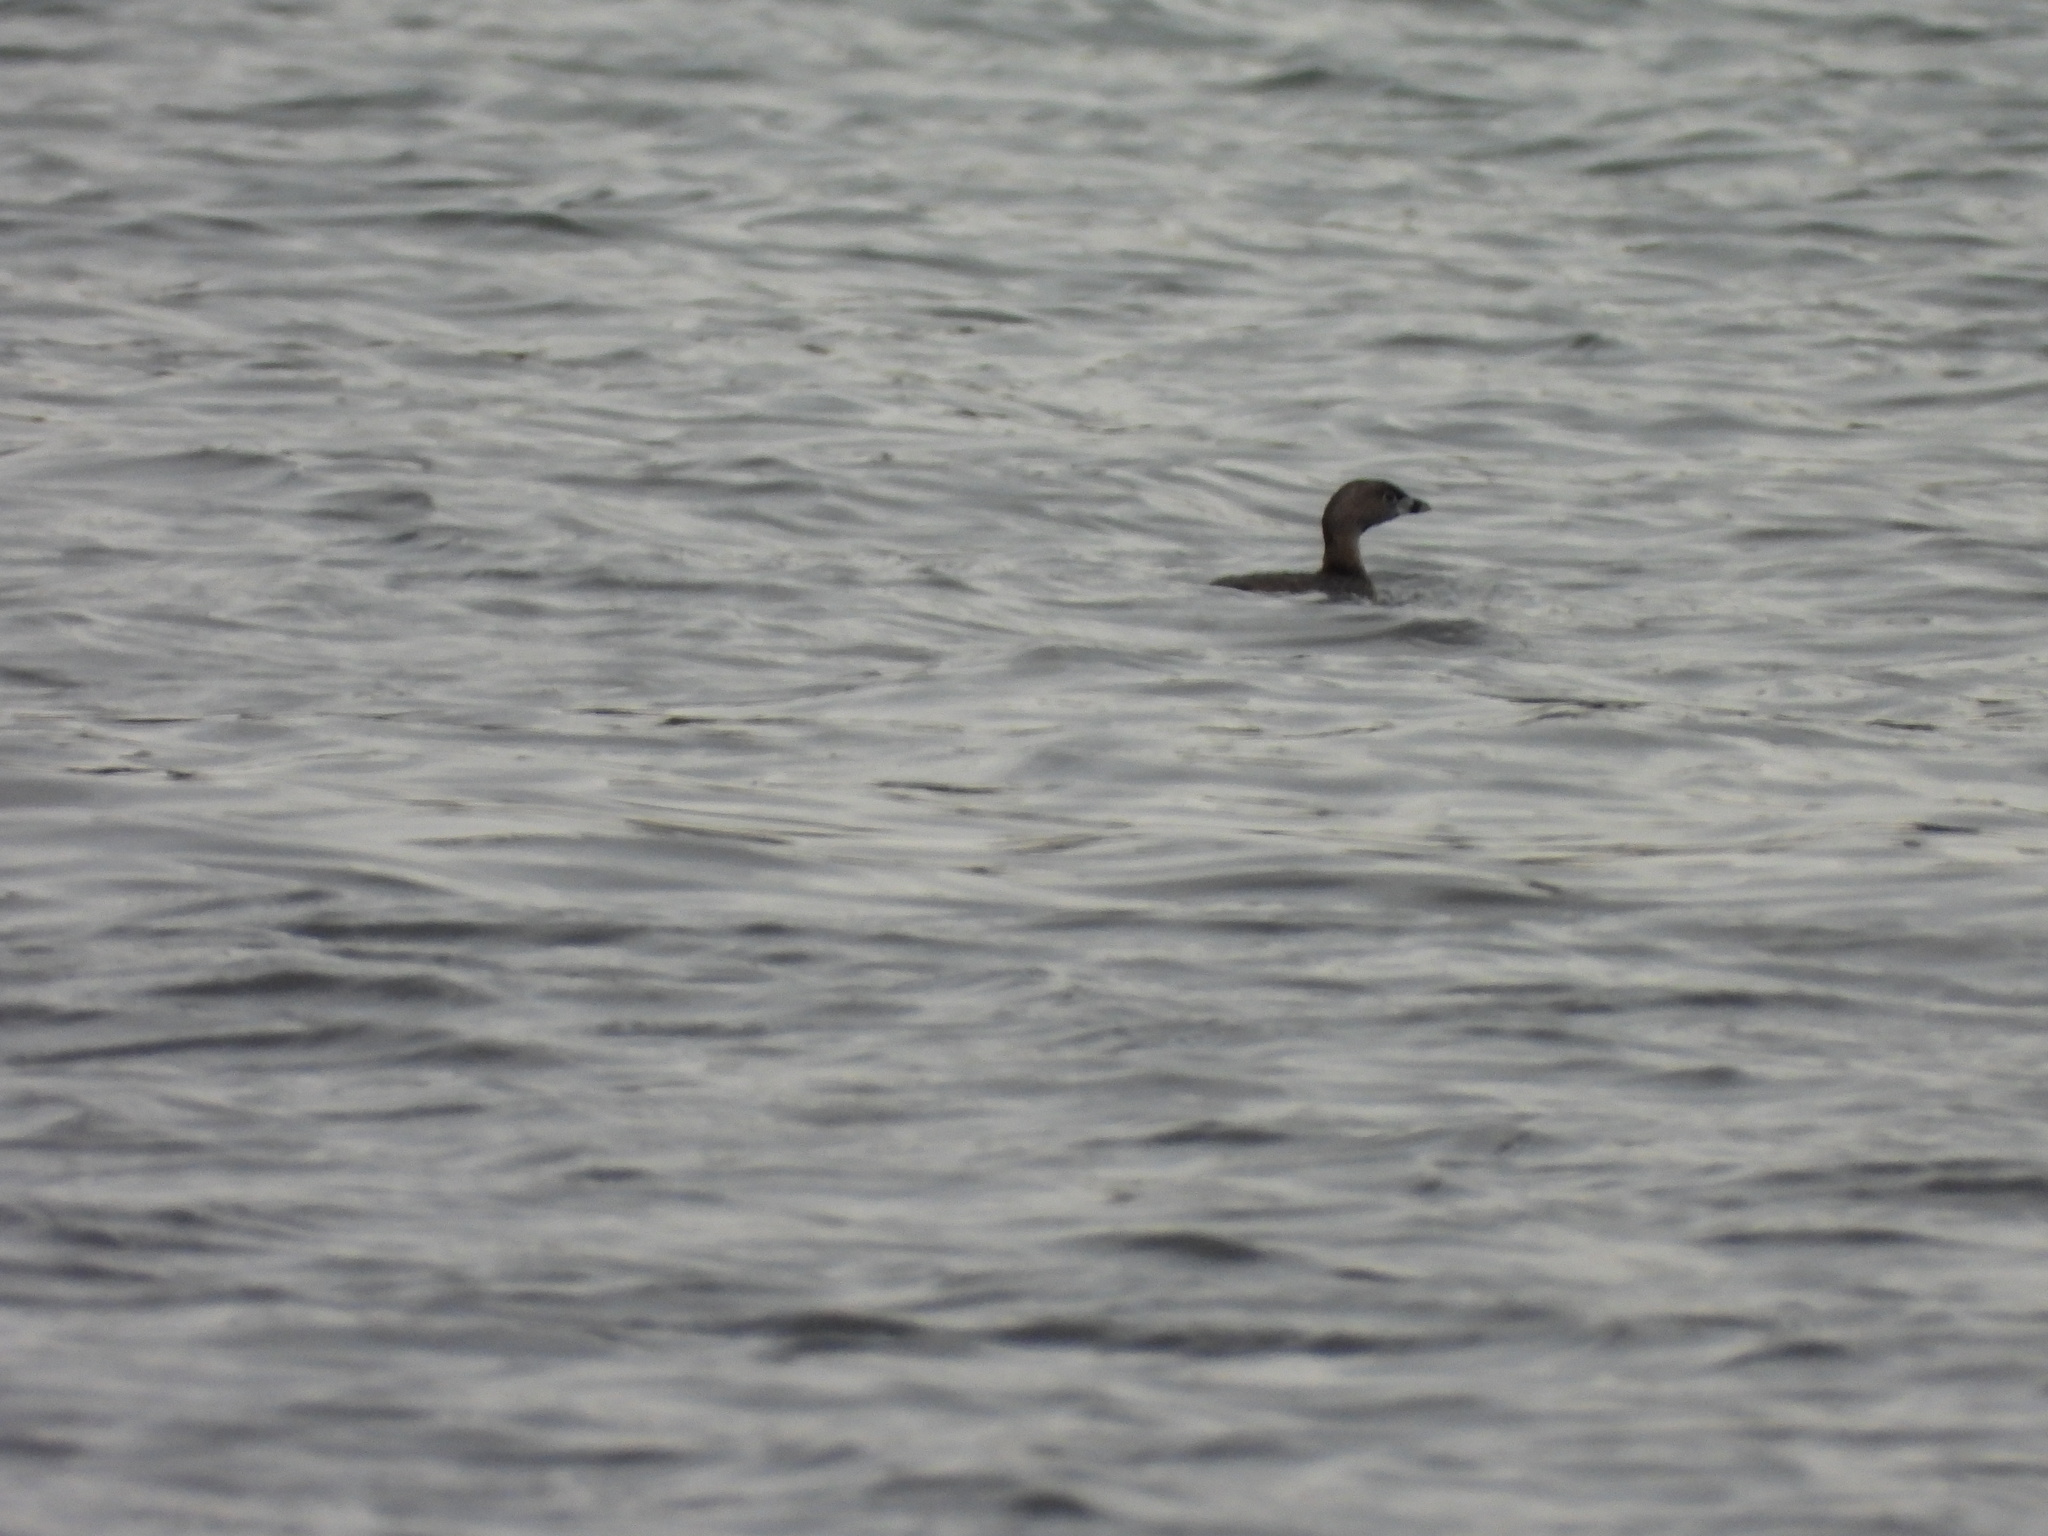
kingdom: Animalia
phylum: Chordata
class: Aves
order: Podicipediformes
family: Podicipedidae
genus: Podilymbus
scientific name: Podilymbus podiceps
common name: Pied-billed grebe
